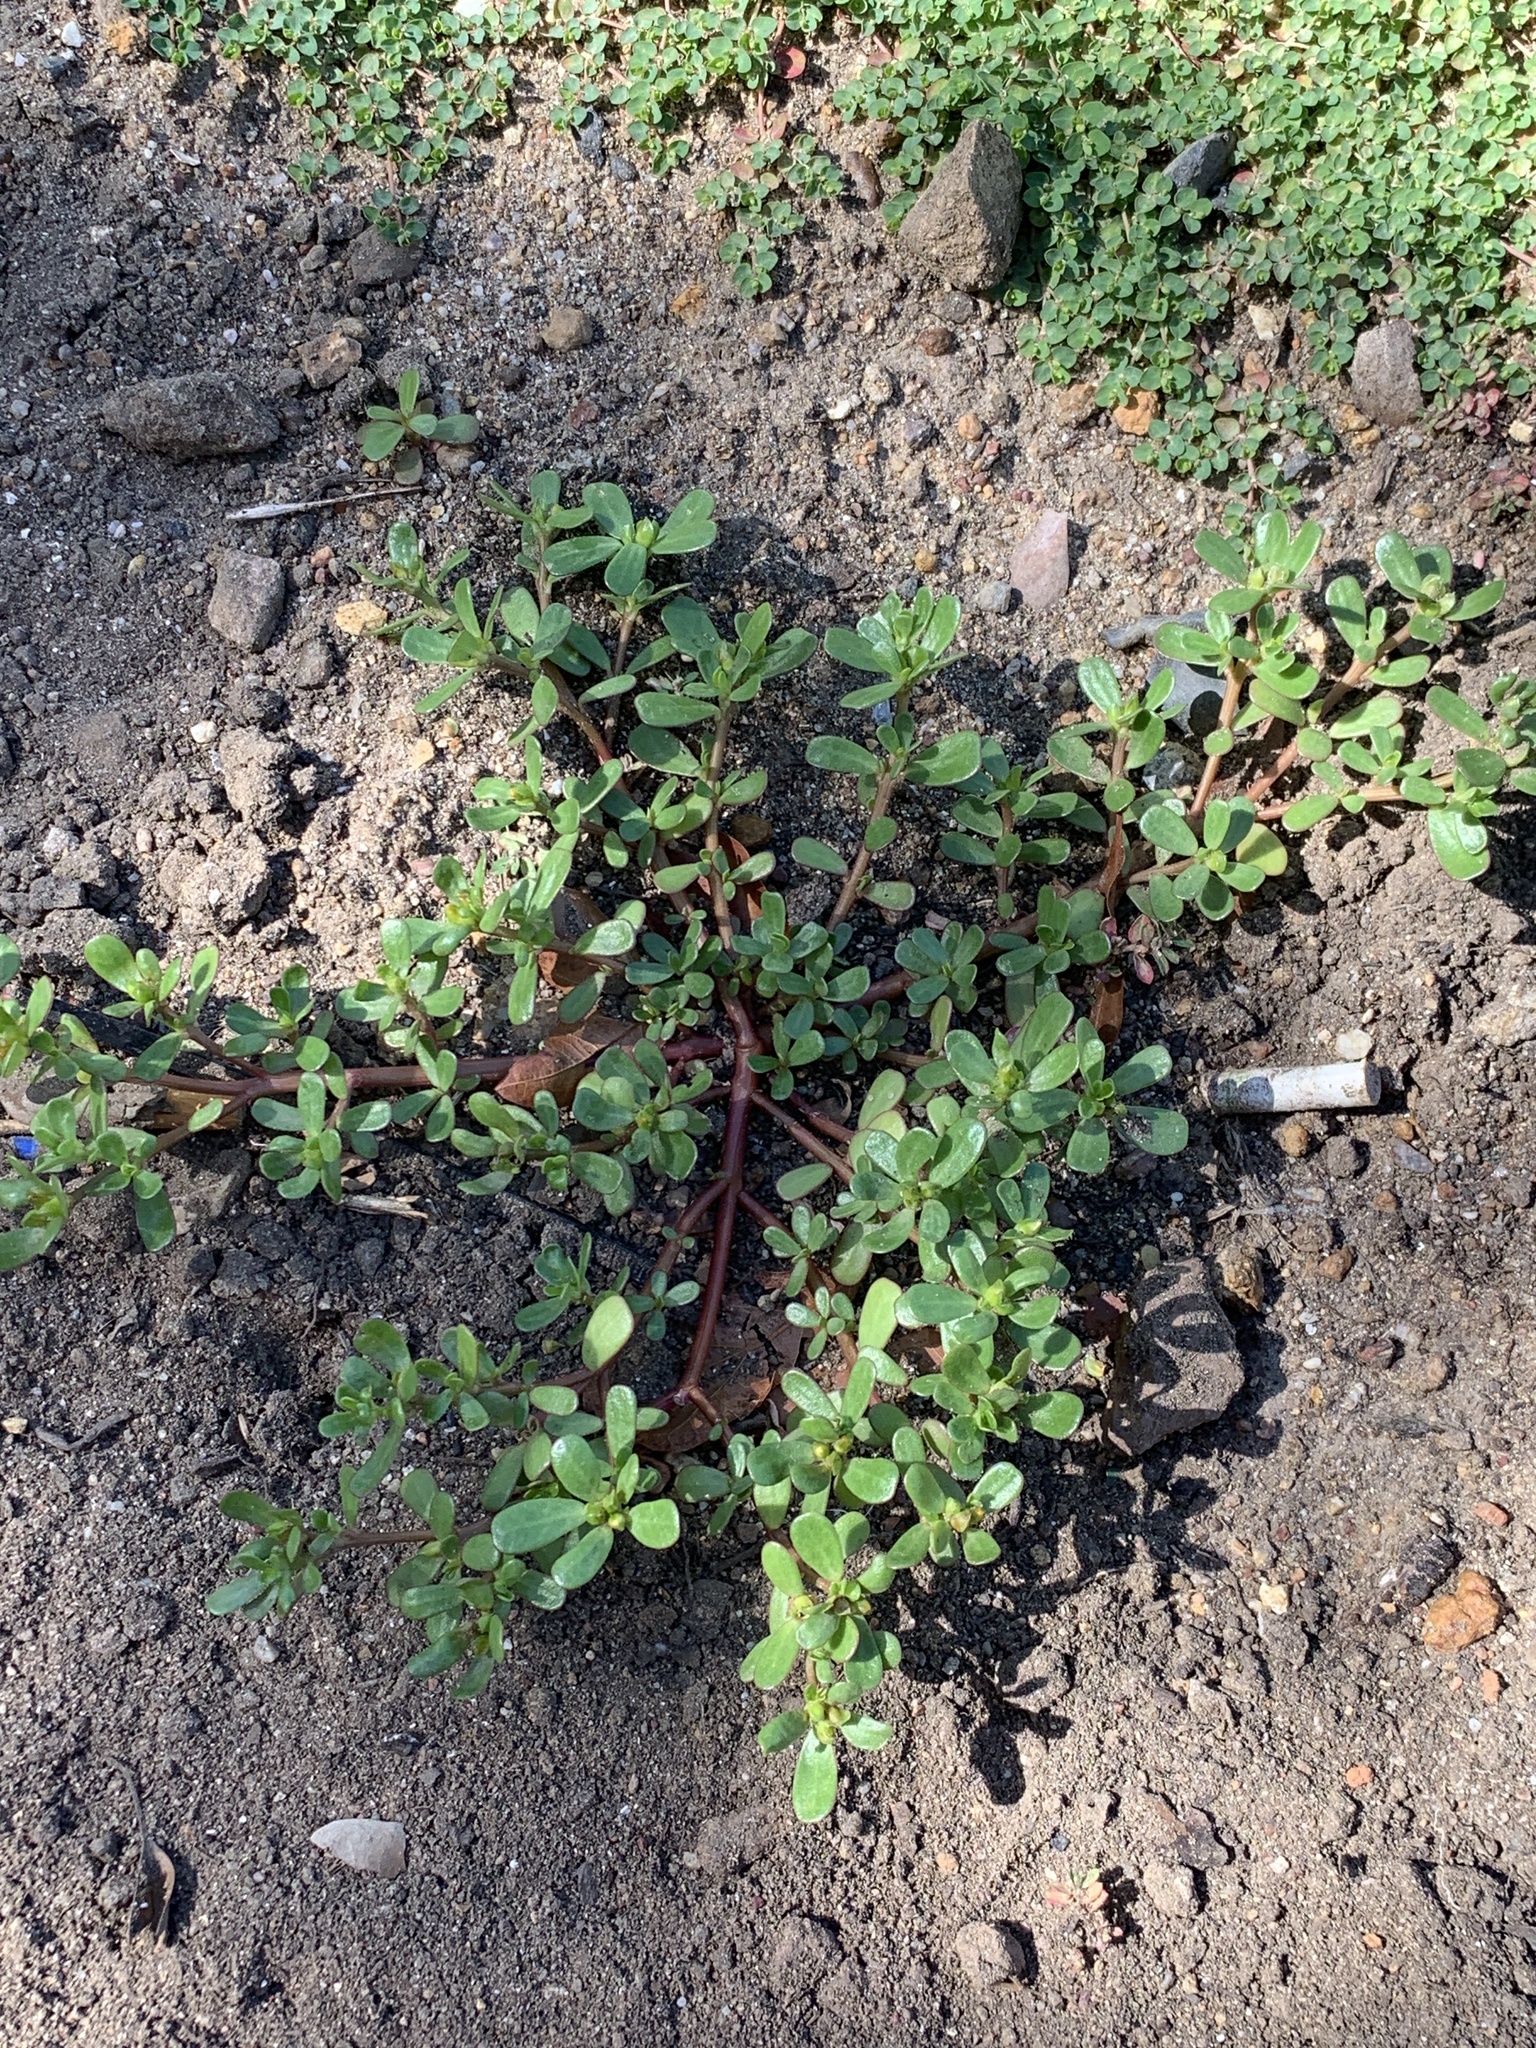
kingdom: Plantae
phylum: Tracheophyta
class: Magnoliopsida
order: Caryophyllales
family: Portulacaceae
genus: Portulaca
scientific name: Portulaca oleracea
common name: Common purslane
